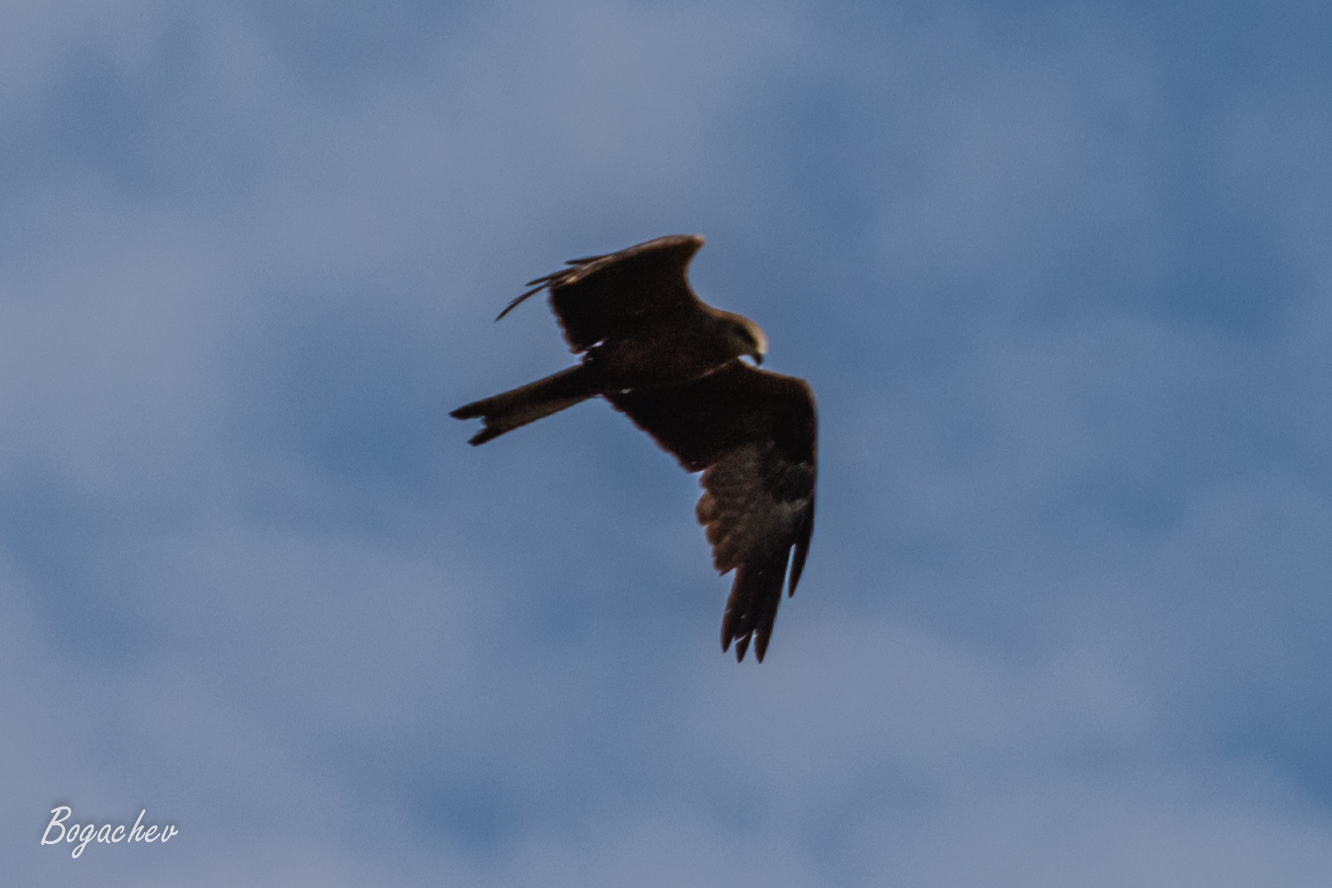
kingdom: Animalia
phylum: Chordata
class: Aves
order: Accipitriformes
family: Accipitridae
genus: Milvus
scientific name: Milvus migrans
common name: Black kite
